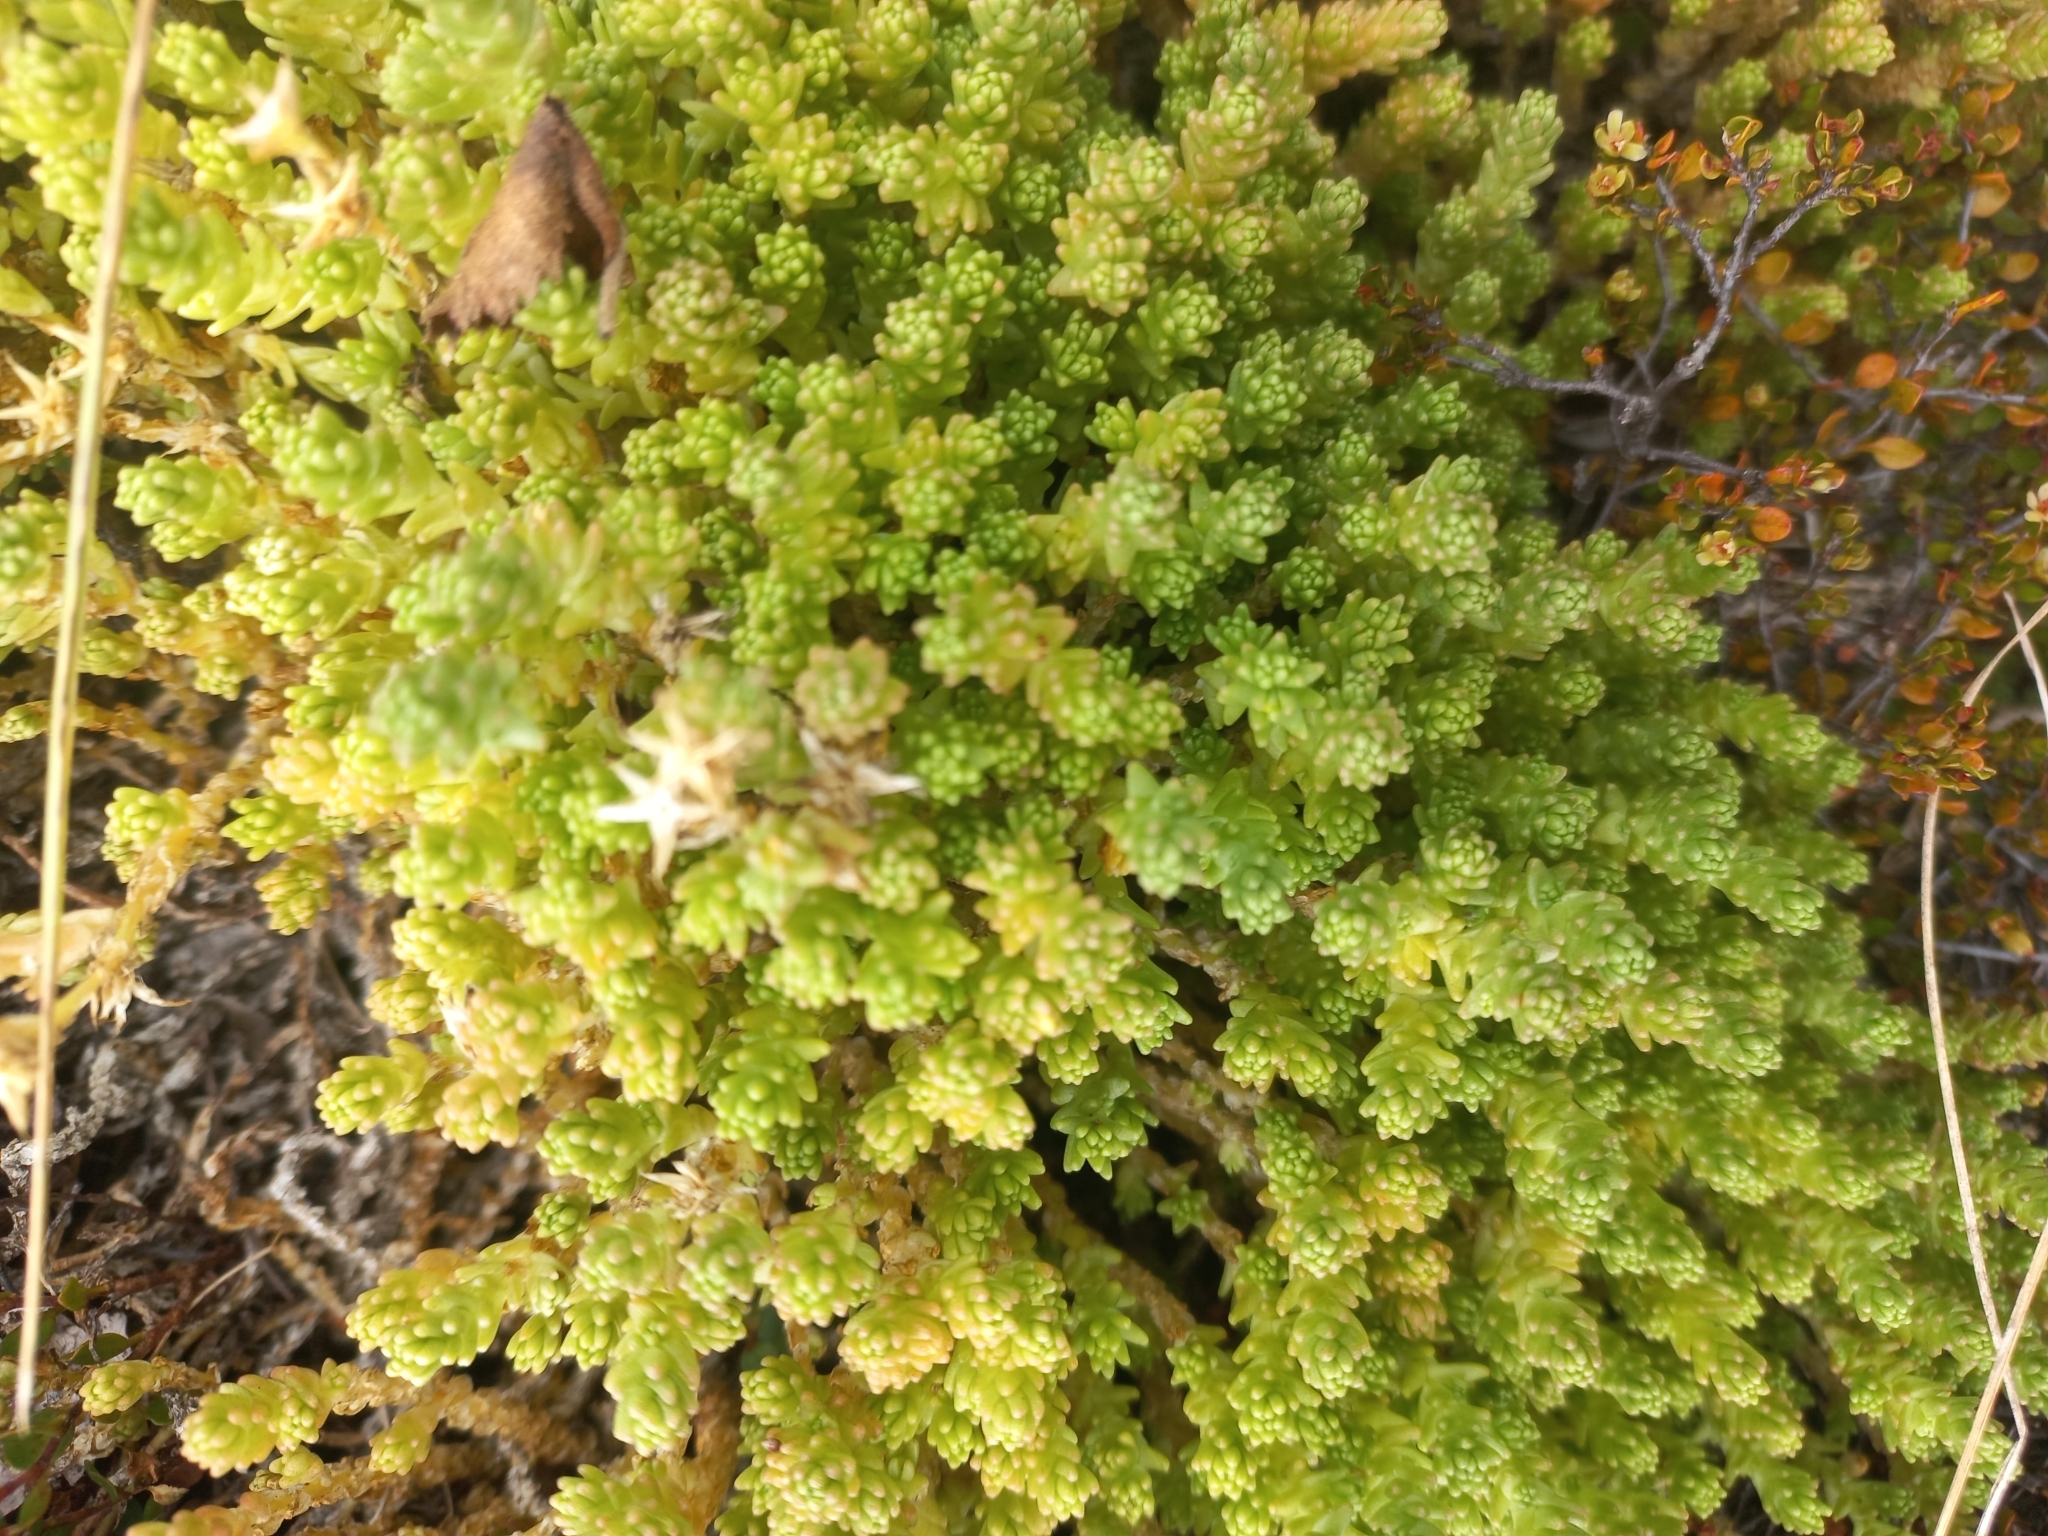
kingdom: Plantae
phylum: Tracheophyta
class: Magnoliopsida
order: Saxifragales
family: Crassulaceae
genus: Sedum
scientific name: Sedum acre
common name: Biting stonecrop
